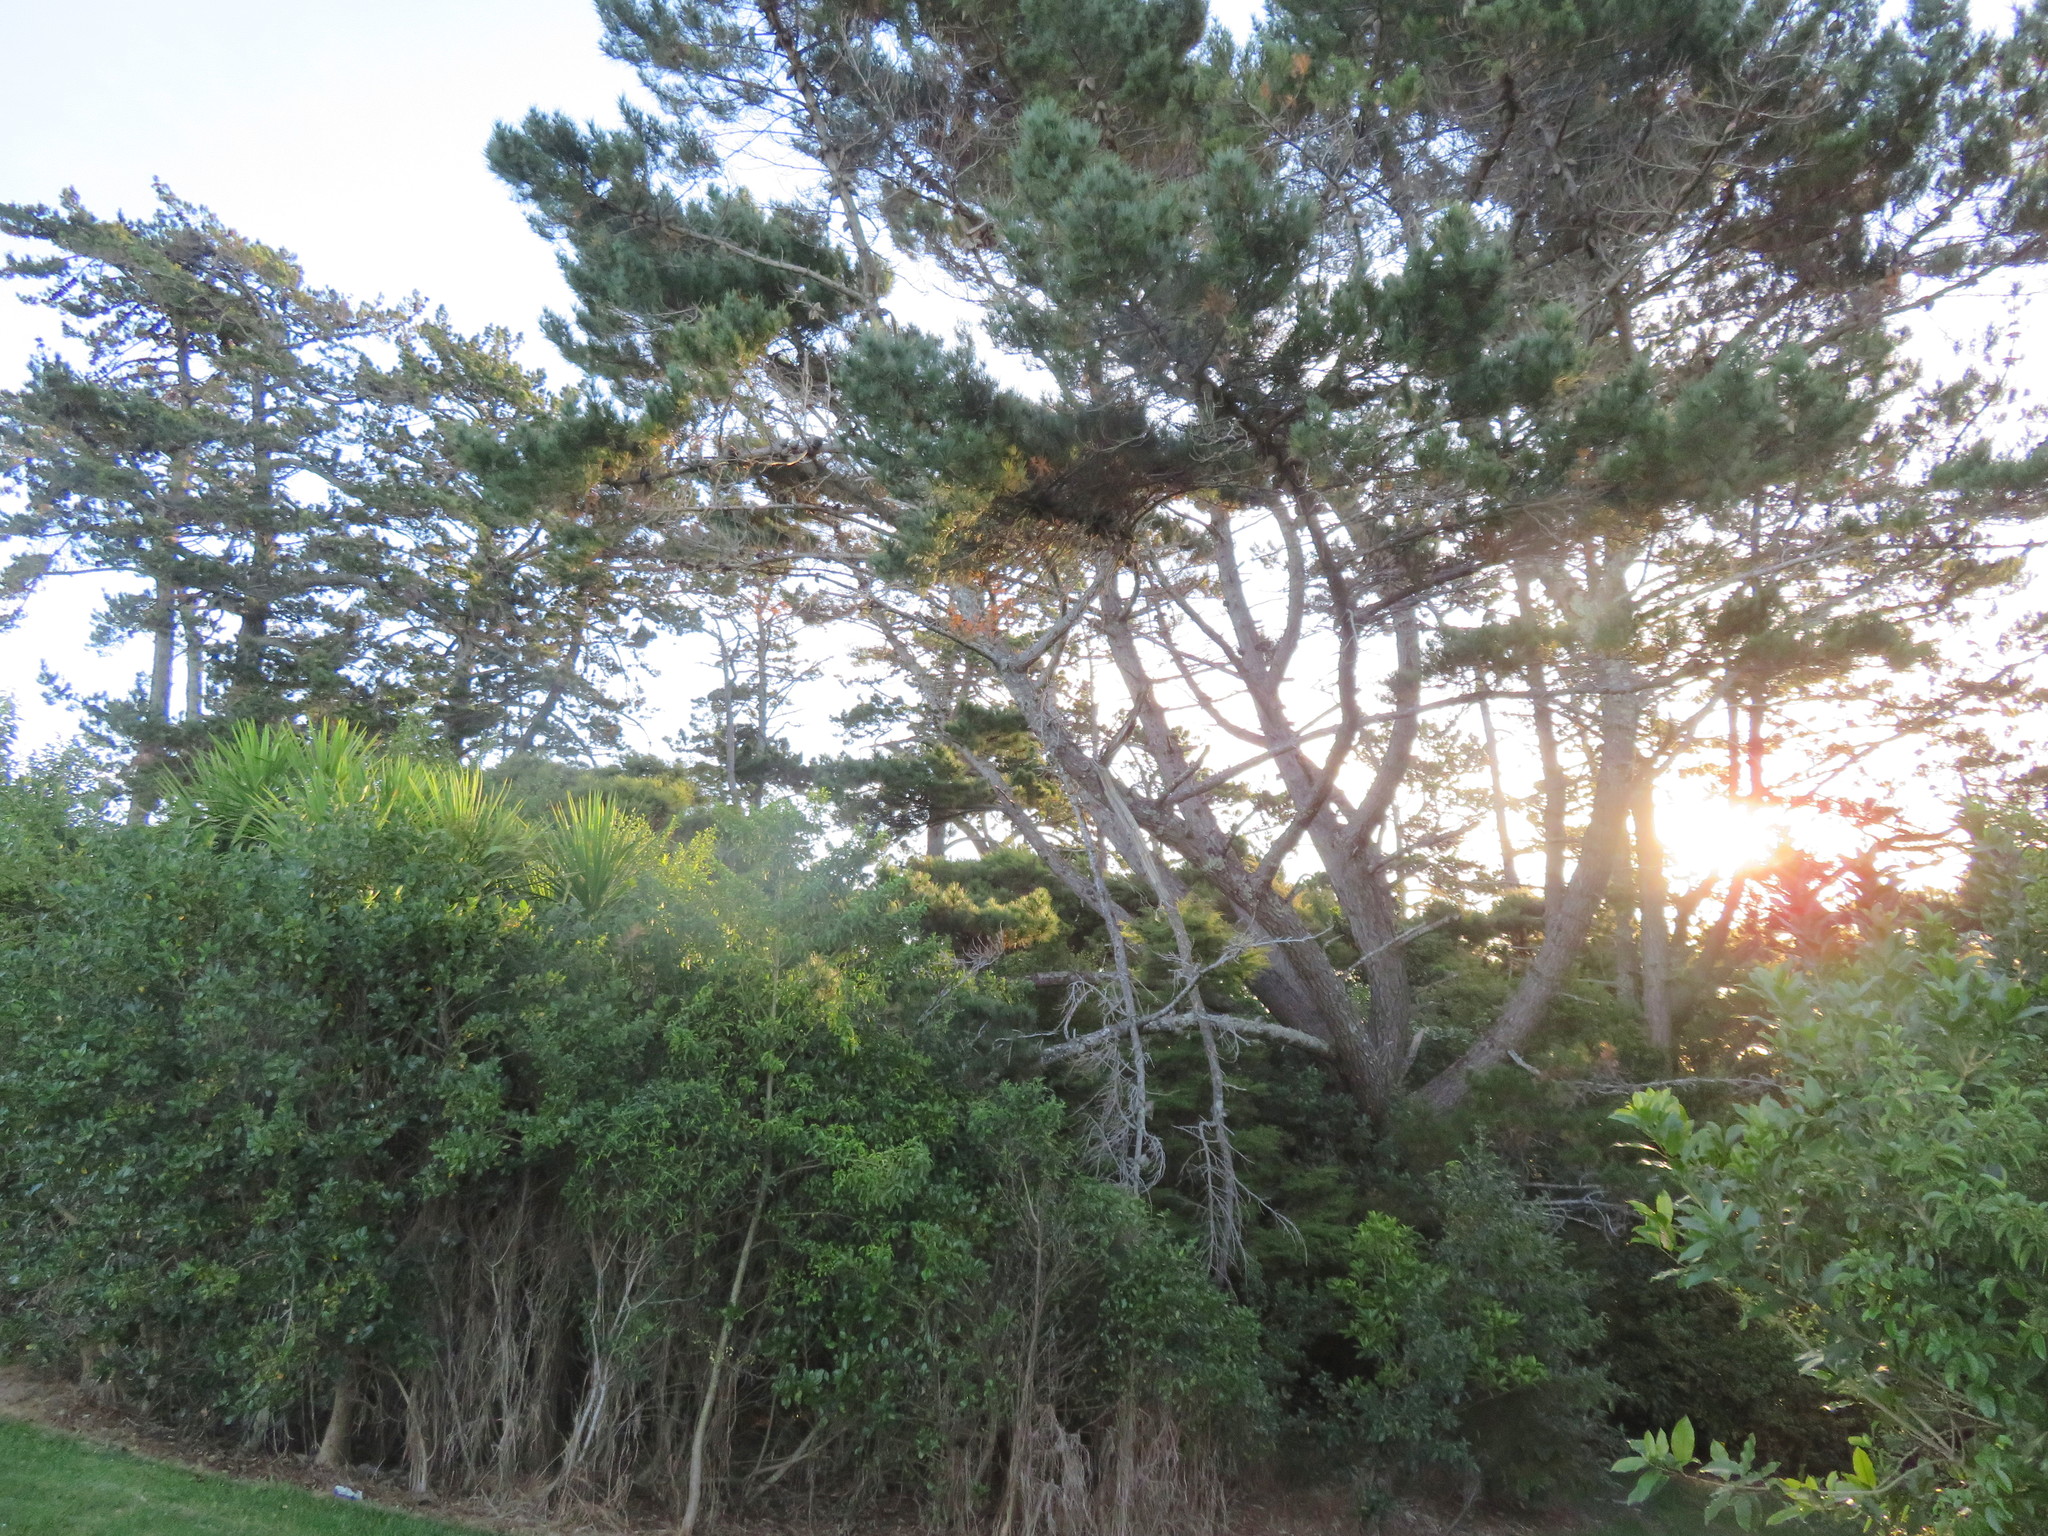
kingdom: Plantae
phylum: Tracheophyta
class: Liliopsida
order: Asparagales
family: Asparagaceae
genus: Cordyline
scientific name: Cordyline australis
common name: Cabbage-palm
